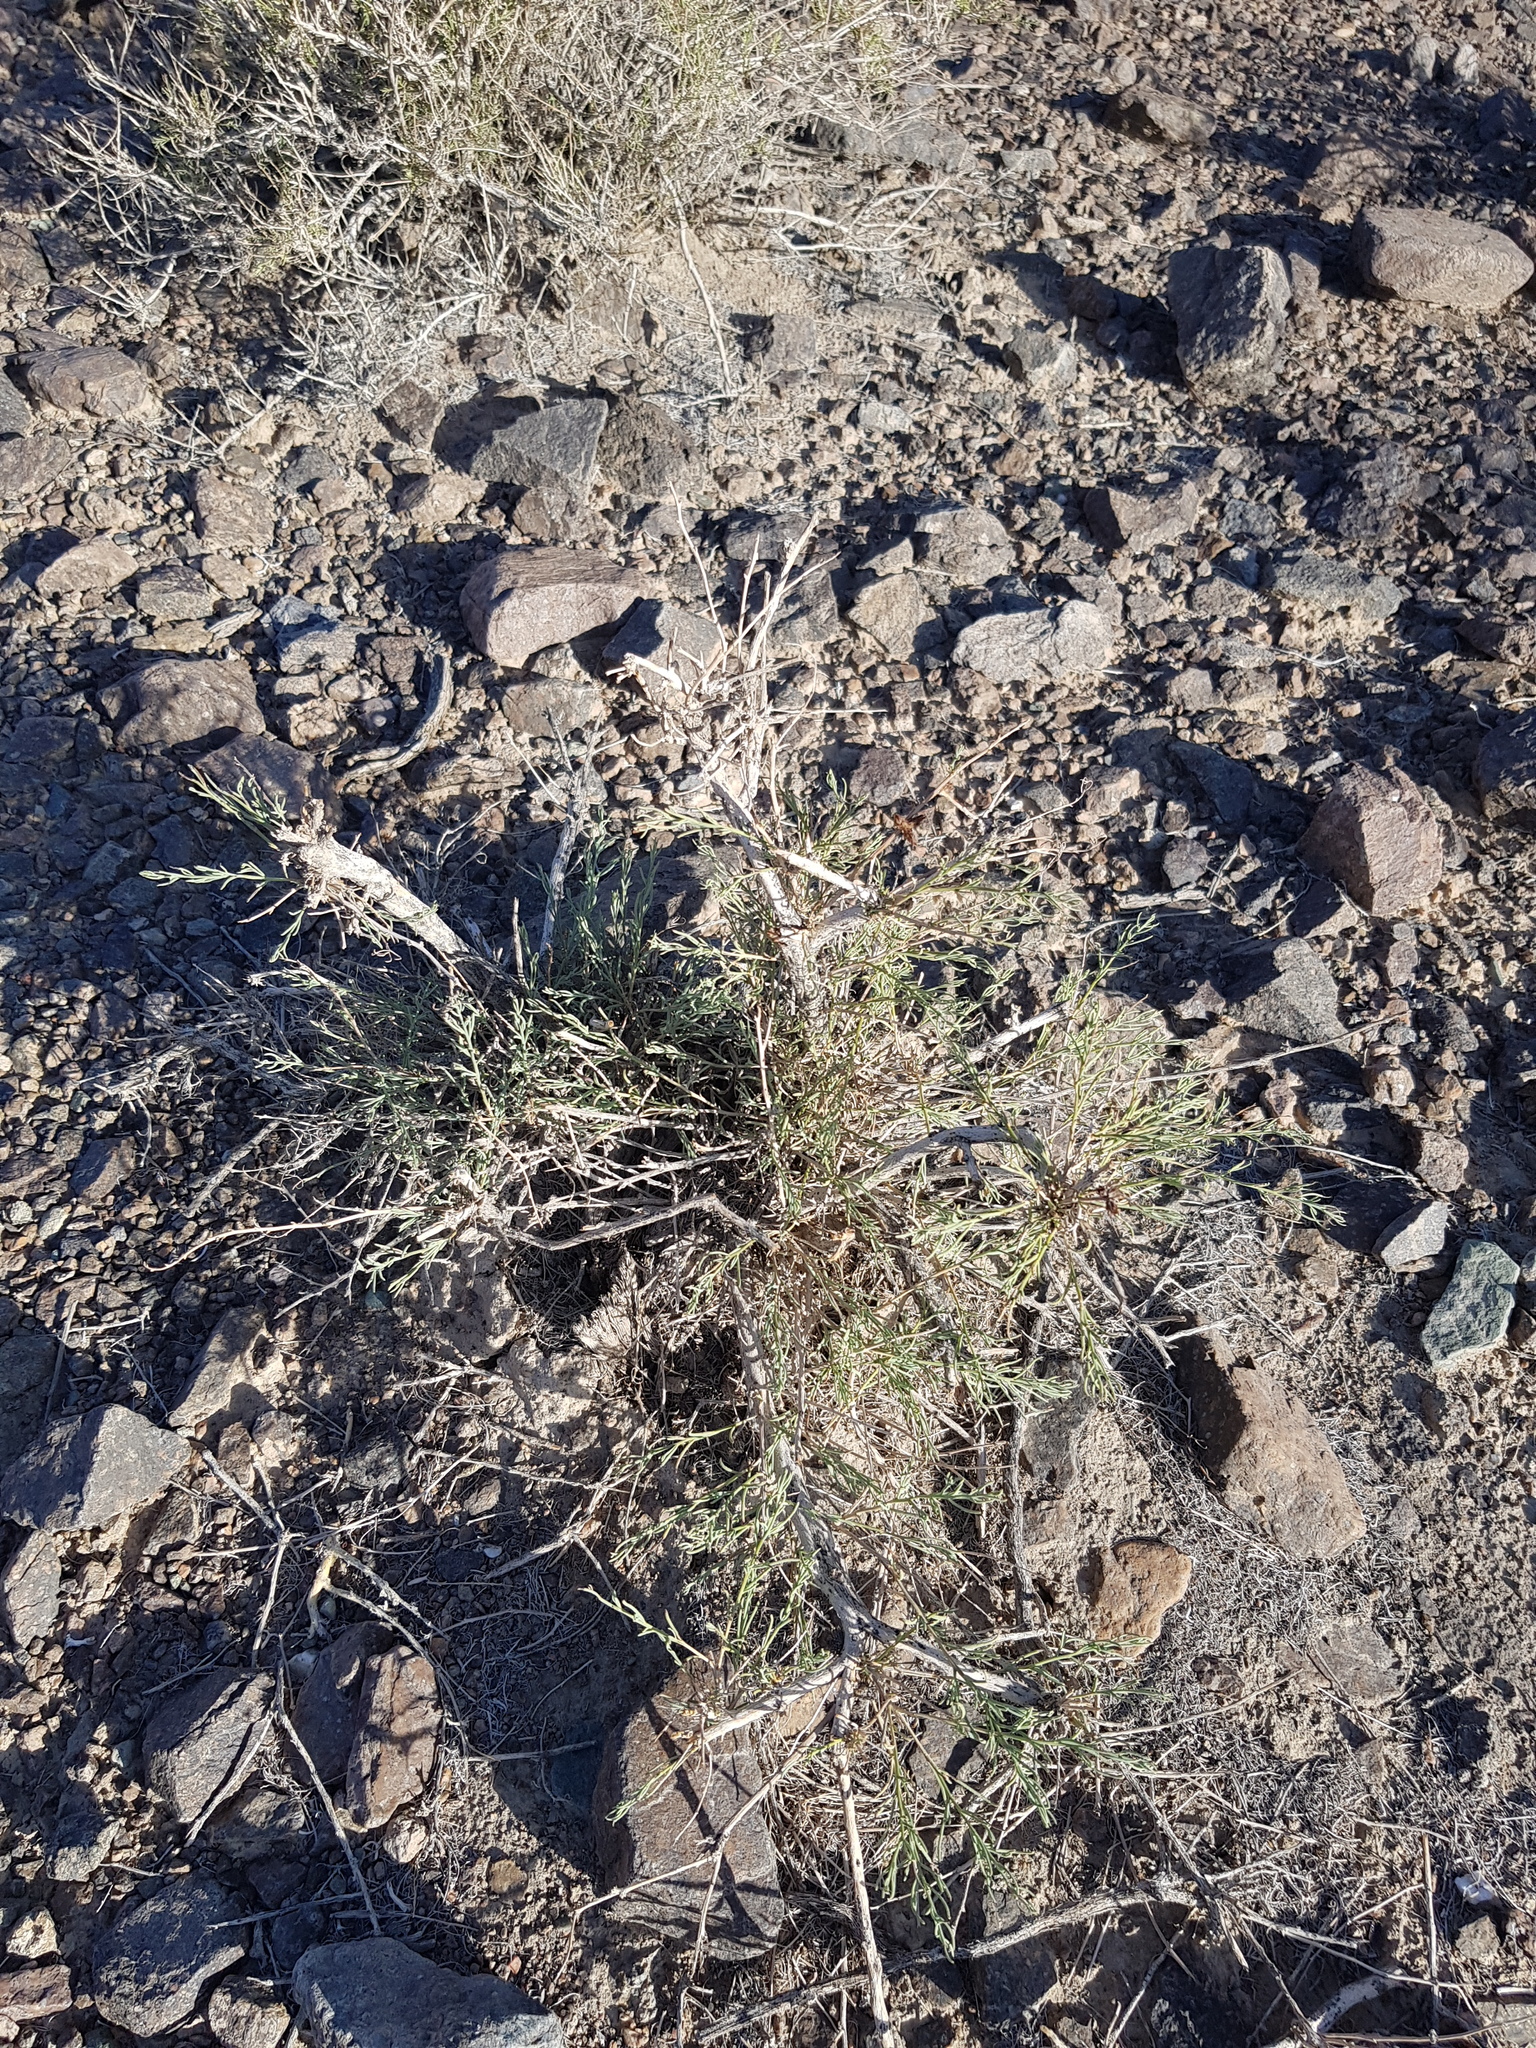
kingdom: Plantae
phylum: Tracheophyta
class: Magnoliopsida
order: Caryophyllales
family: Amaranthaceae
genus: Sympegma
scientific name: Sympegma regelii
